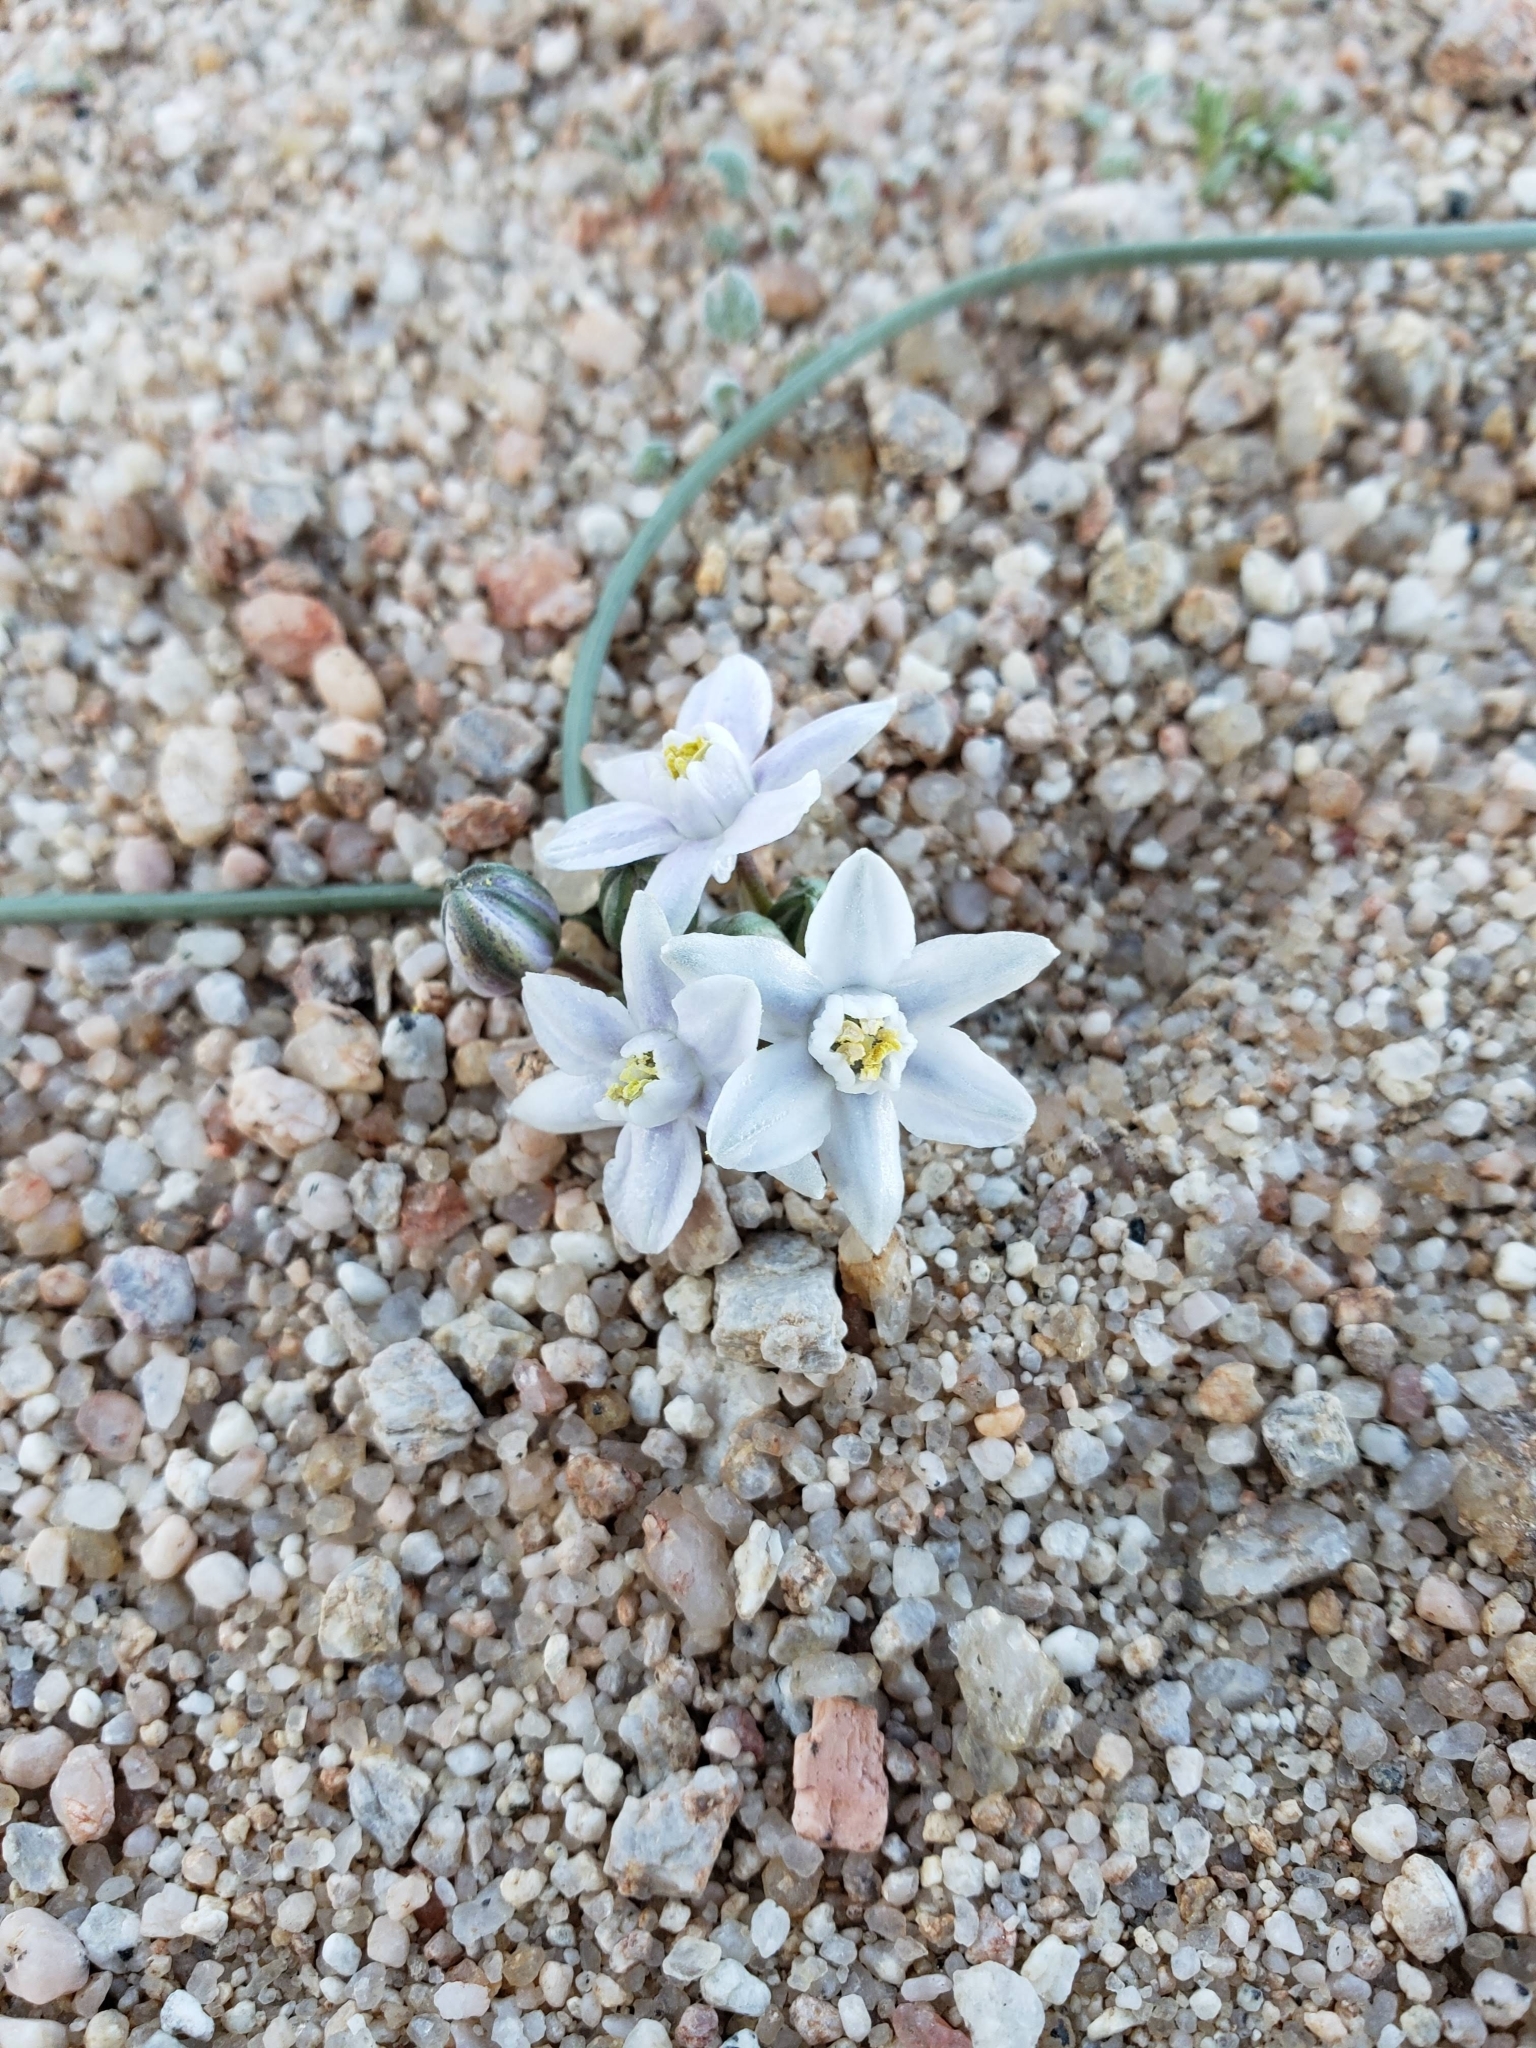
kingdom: Plantae
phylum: Tracheophyta
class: Liliopsida
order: Asparagales
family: Asparagaceae
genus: Muilla
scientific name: Muilla coronata
